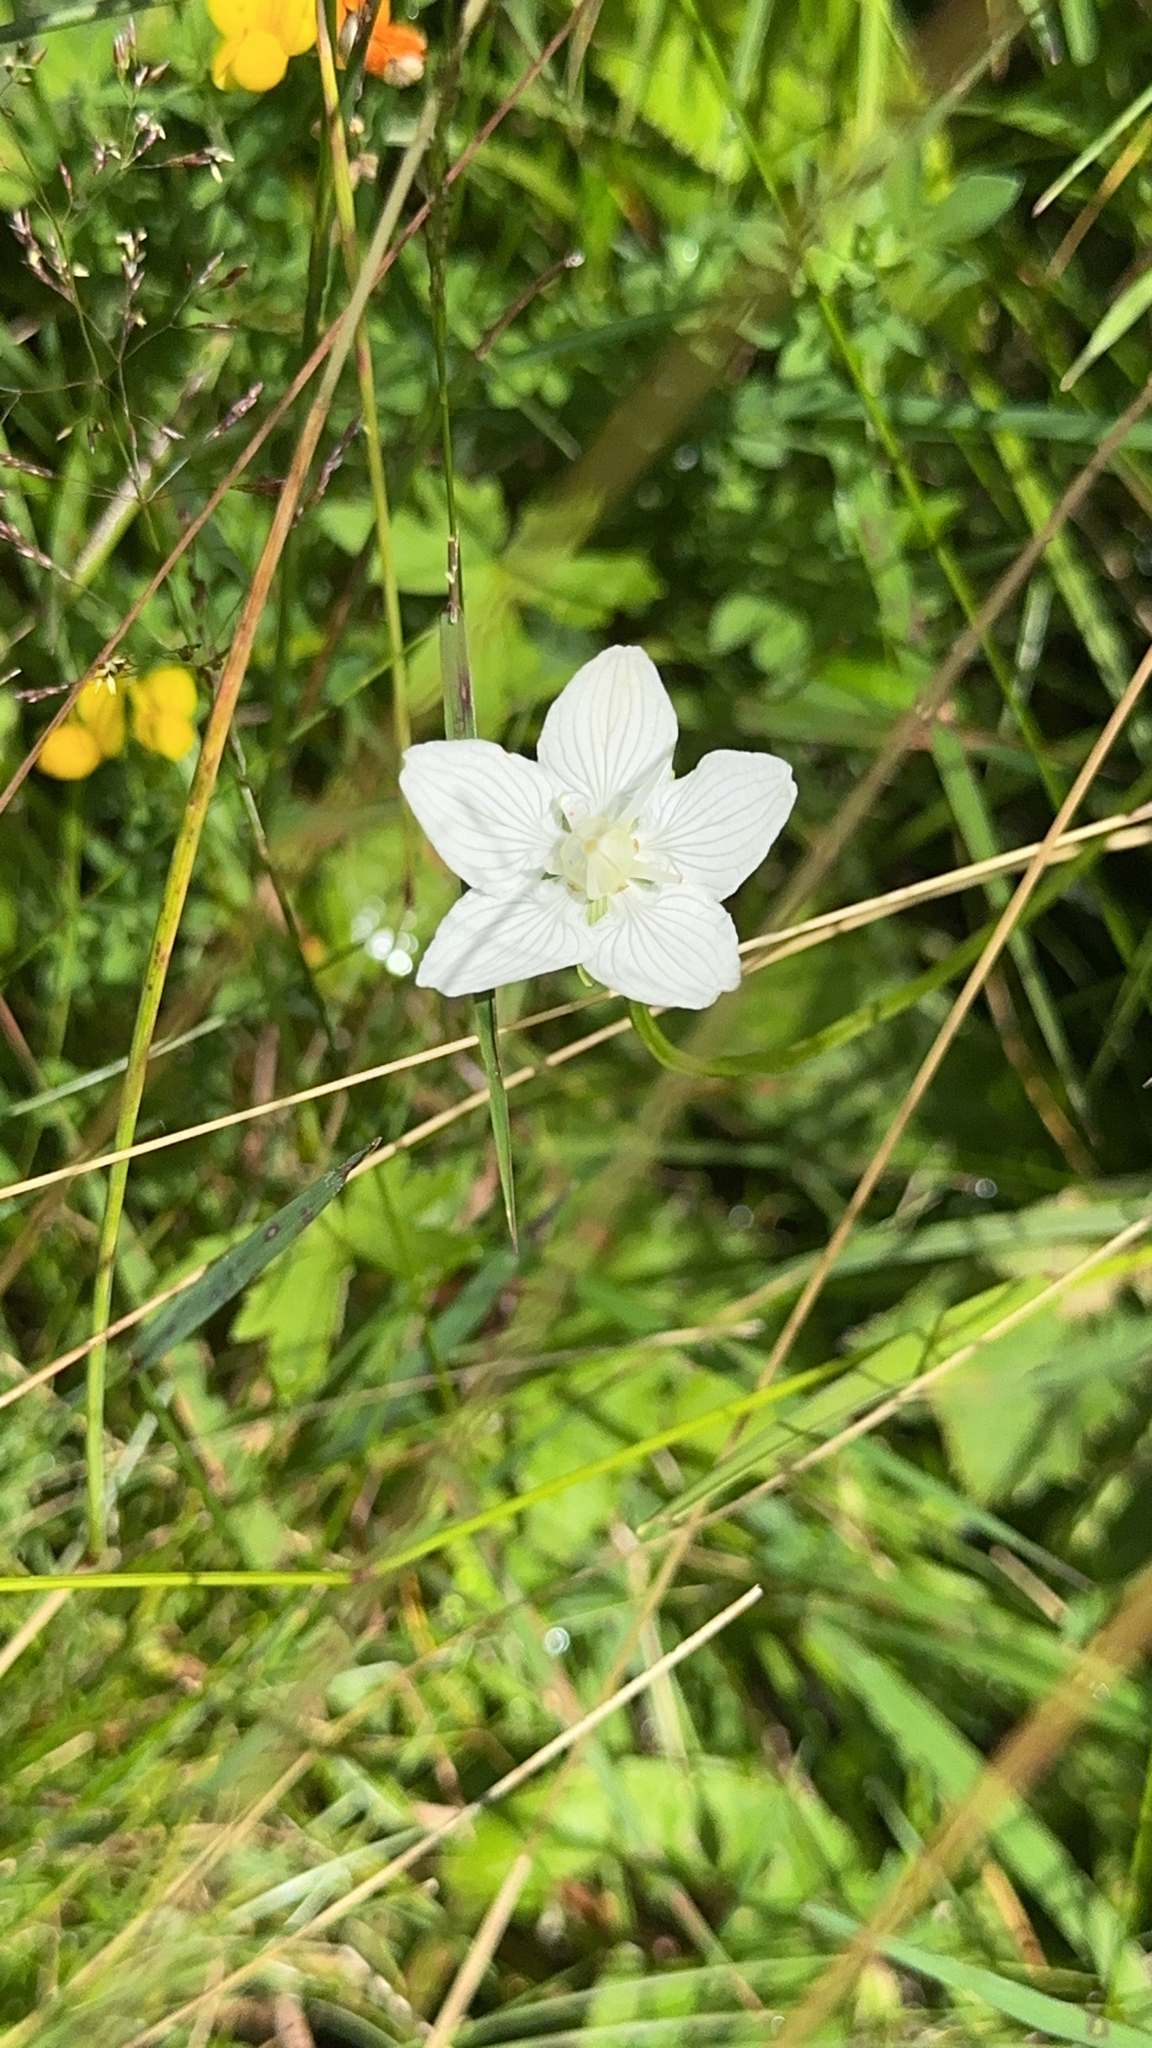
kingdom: Plantae
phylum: Tracheophyta
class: Magnoliopsida
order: Celastrales
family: Parnassiaceae
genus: Parnassia
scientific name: Parnassia palustris
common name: Grass-of-parnassus
